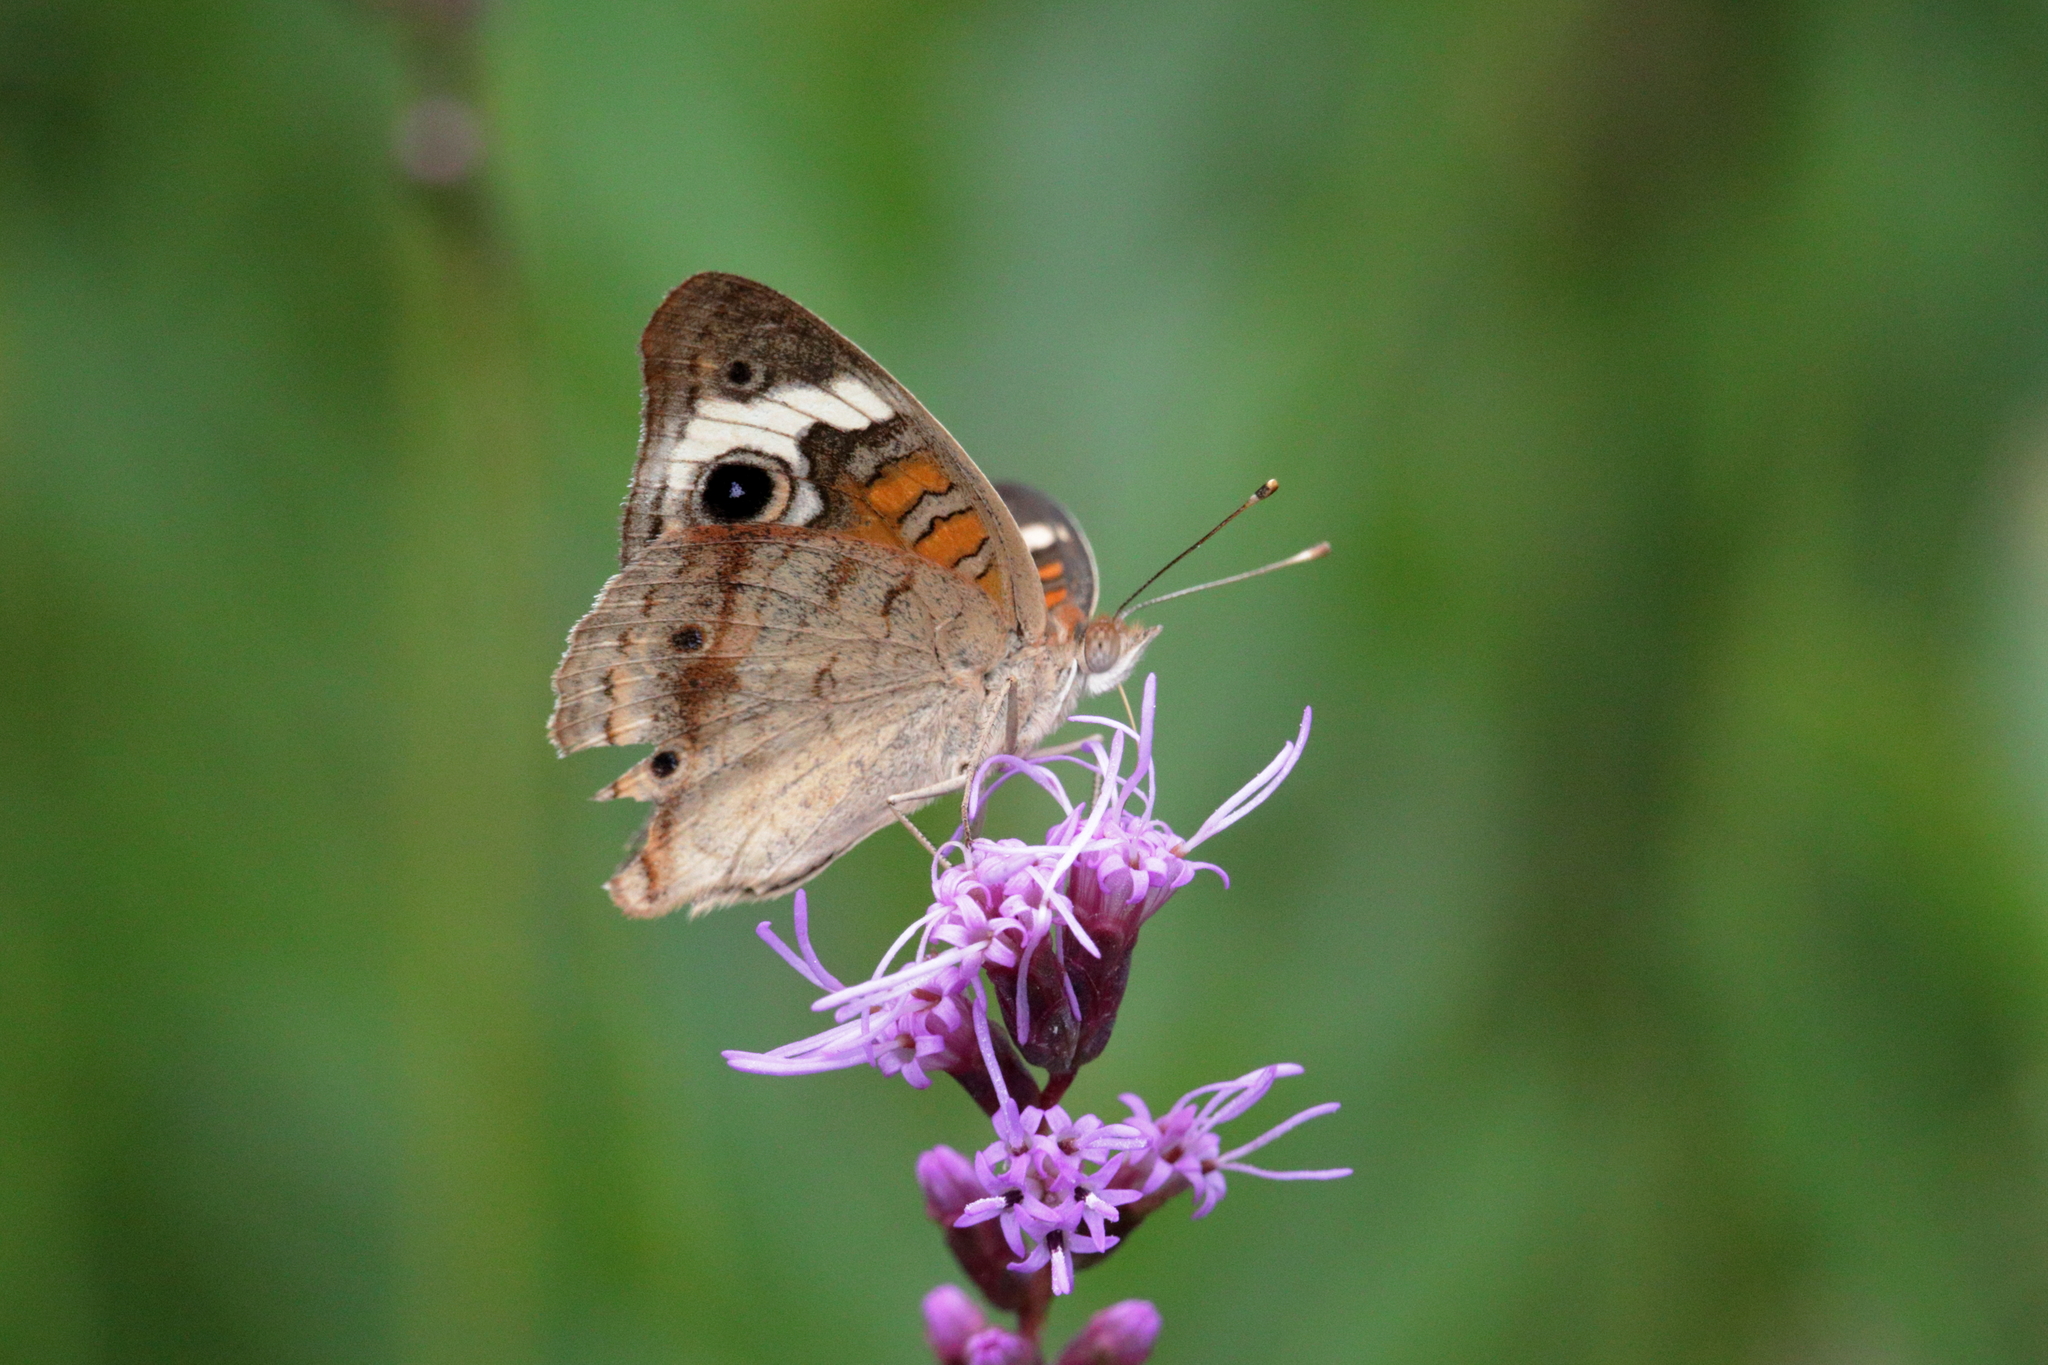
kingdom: Animalia
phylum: Arthropoda
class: Insecta
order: Lepidoptera
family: Nymphalidae
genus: Junonia
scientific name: Junonia coenia
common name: Common buckeye
